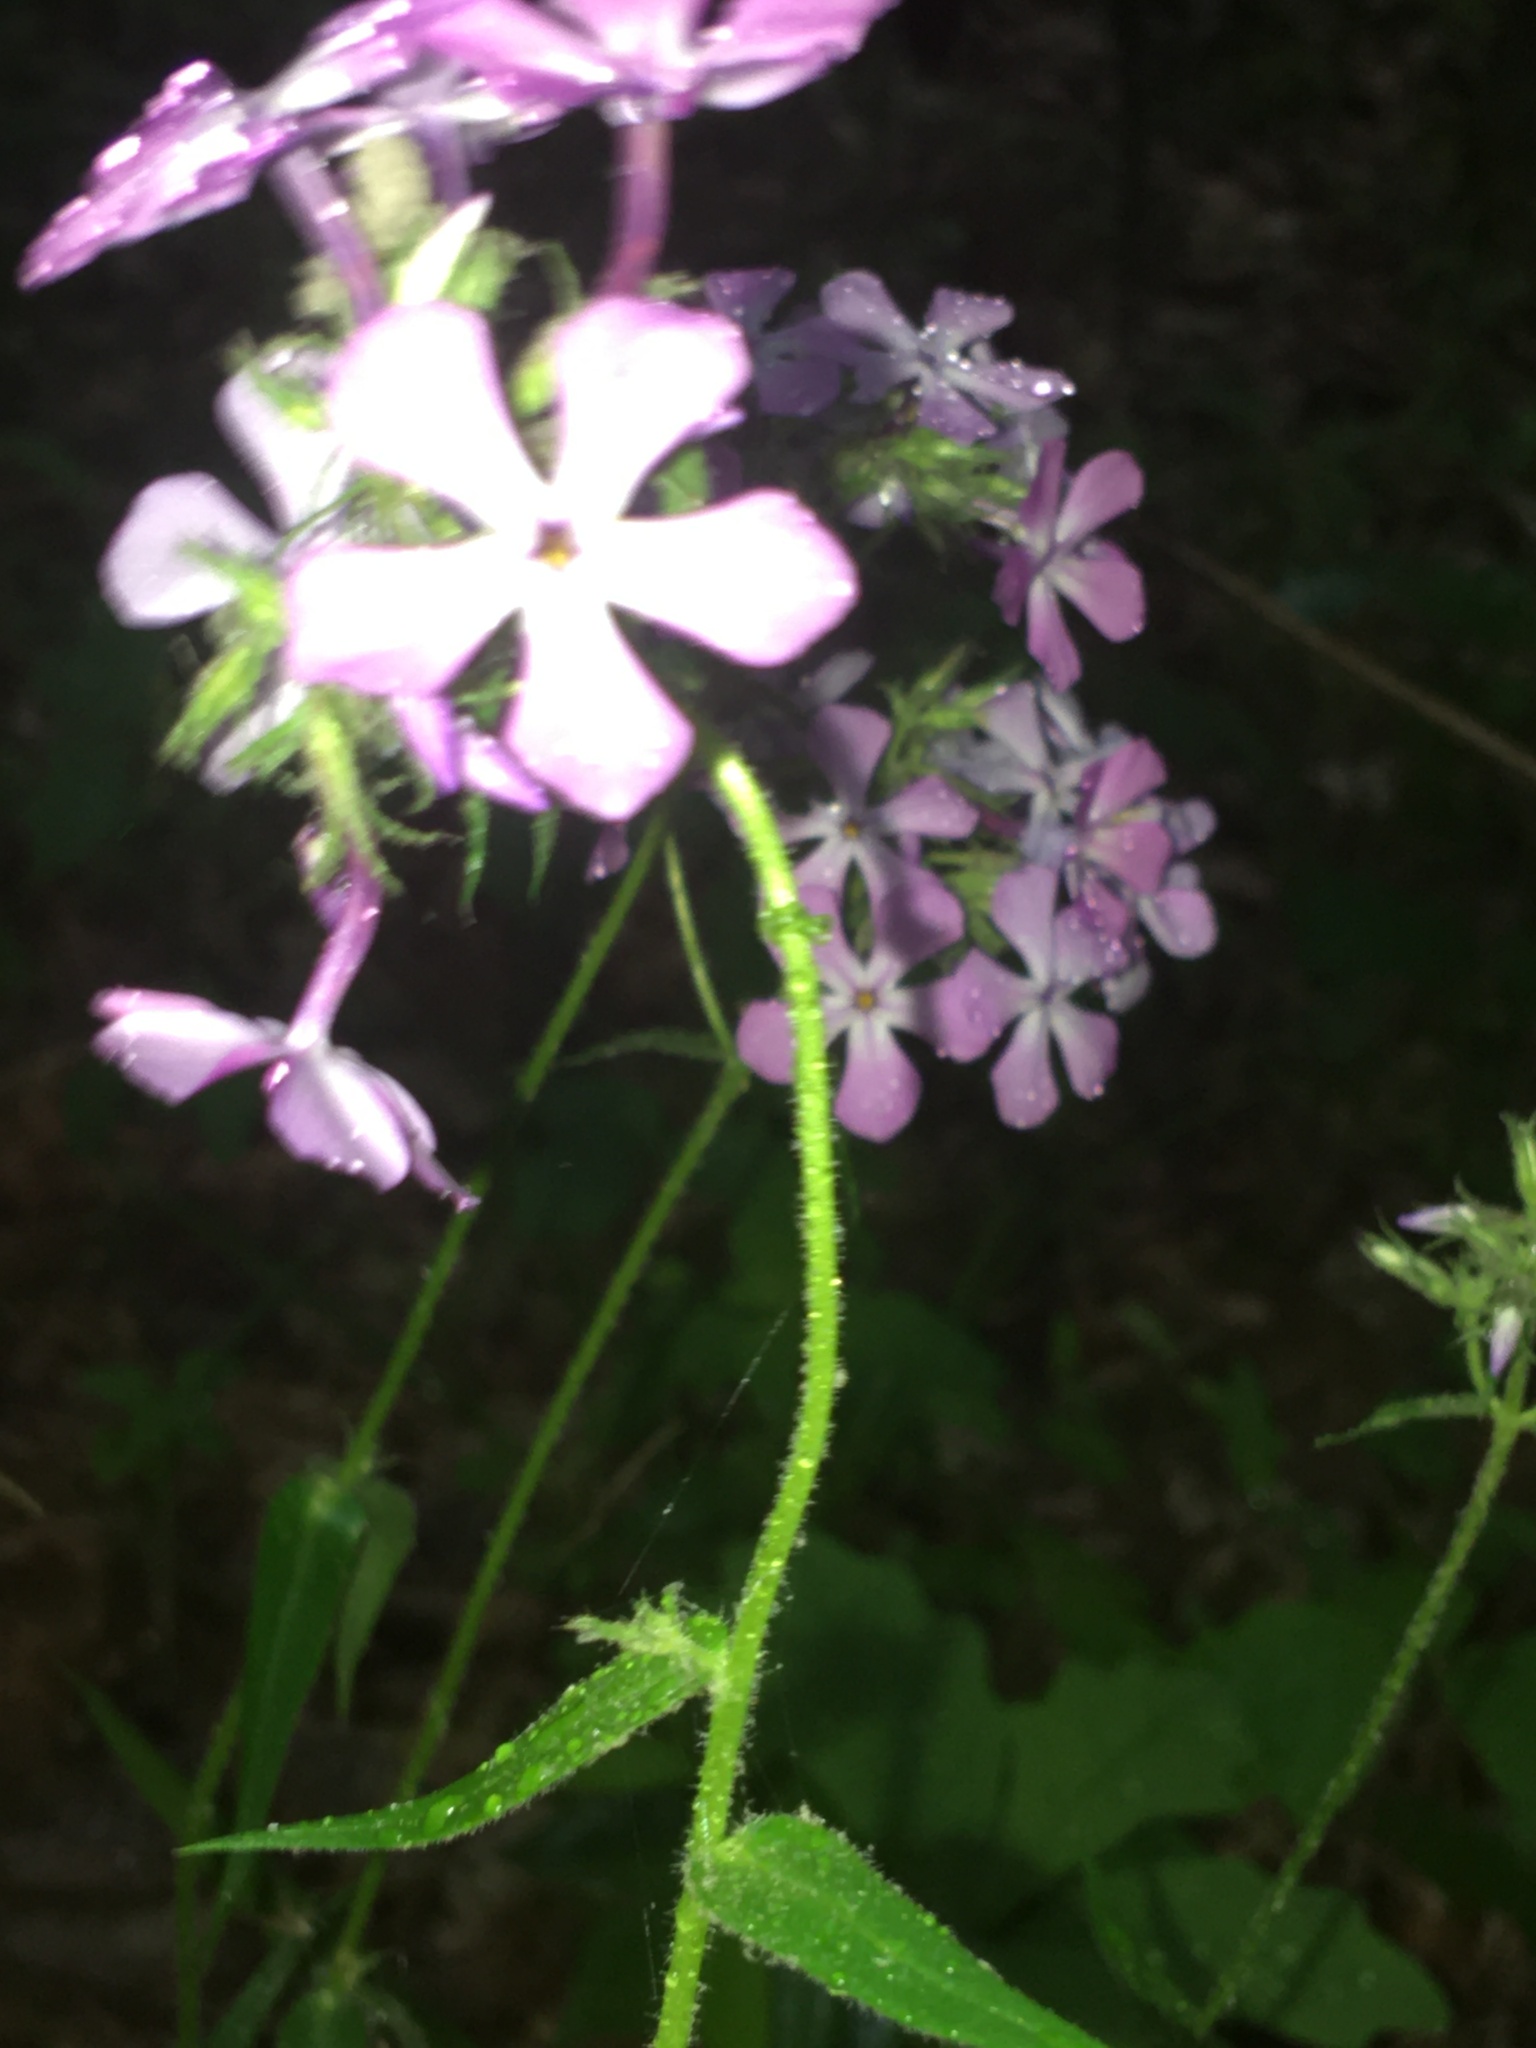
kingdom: Plantae
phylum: Tracheophyta
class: Magnoliopsida
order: Ericales
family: Polemoniaceae
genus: Phlox
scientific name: Phlox pilosa
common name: Prairie phlox
